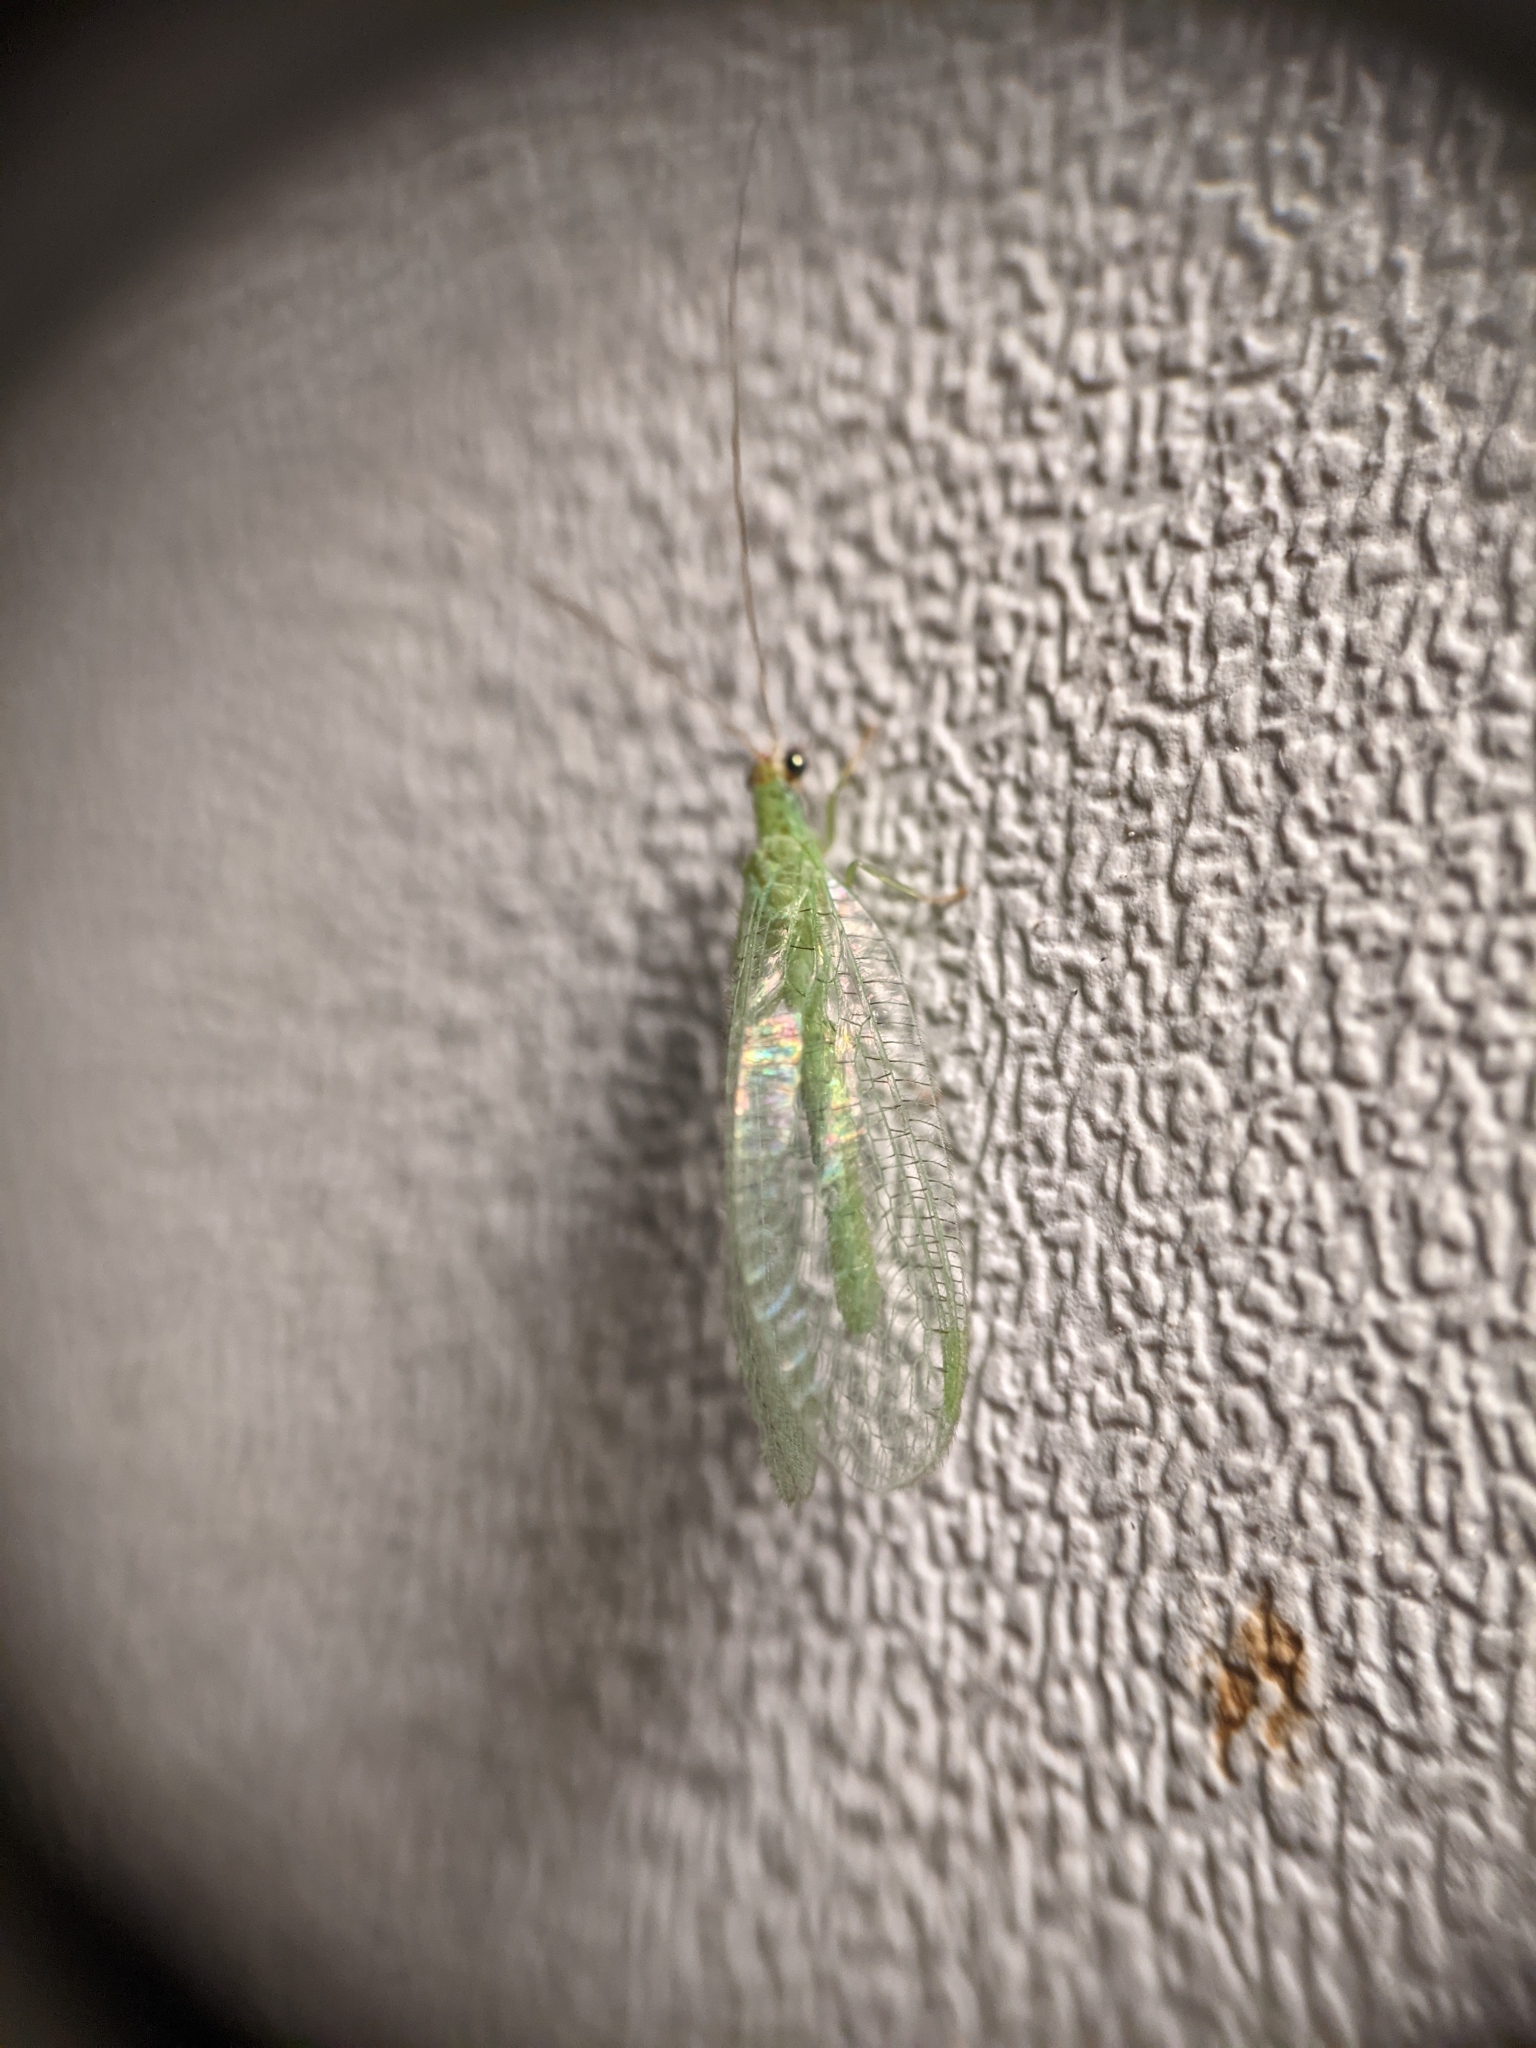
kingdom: Animalia
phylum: Arthropoda
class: Insecta
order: Neuroptera
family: Chrysopidae
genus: Chrysopa
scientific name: Chrysopa oculata
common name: Golden-eyed lacewing
